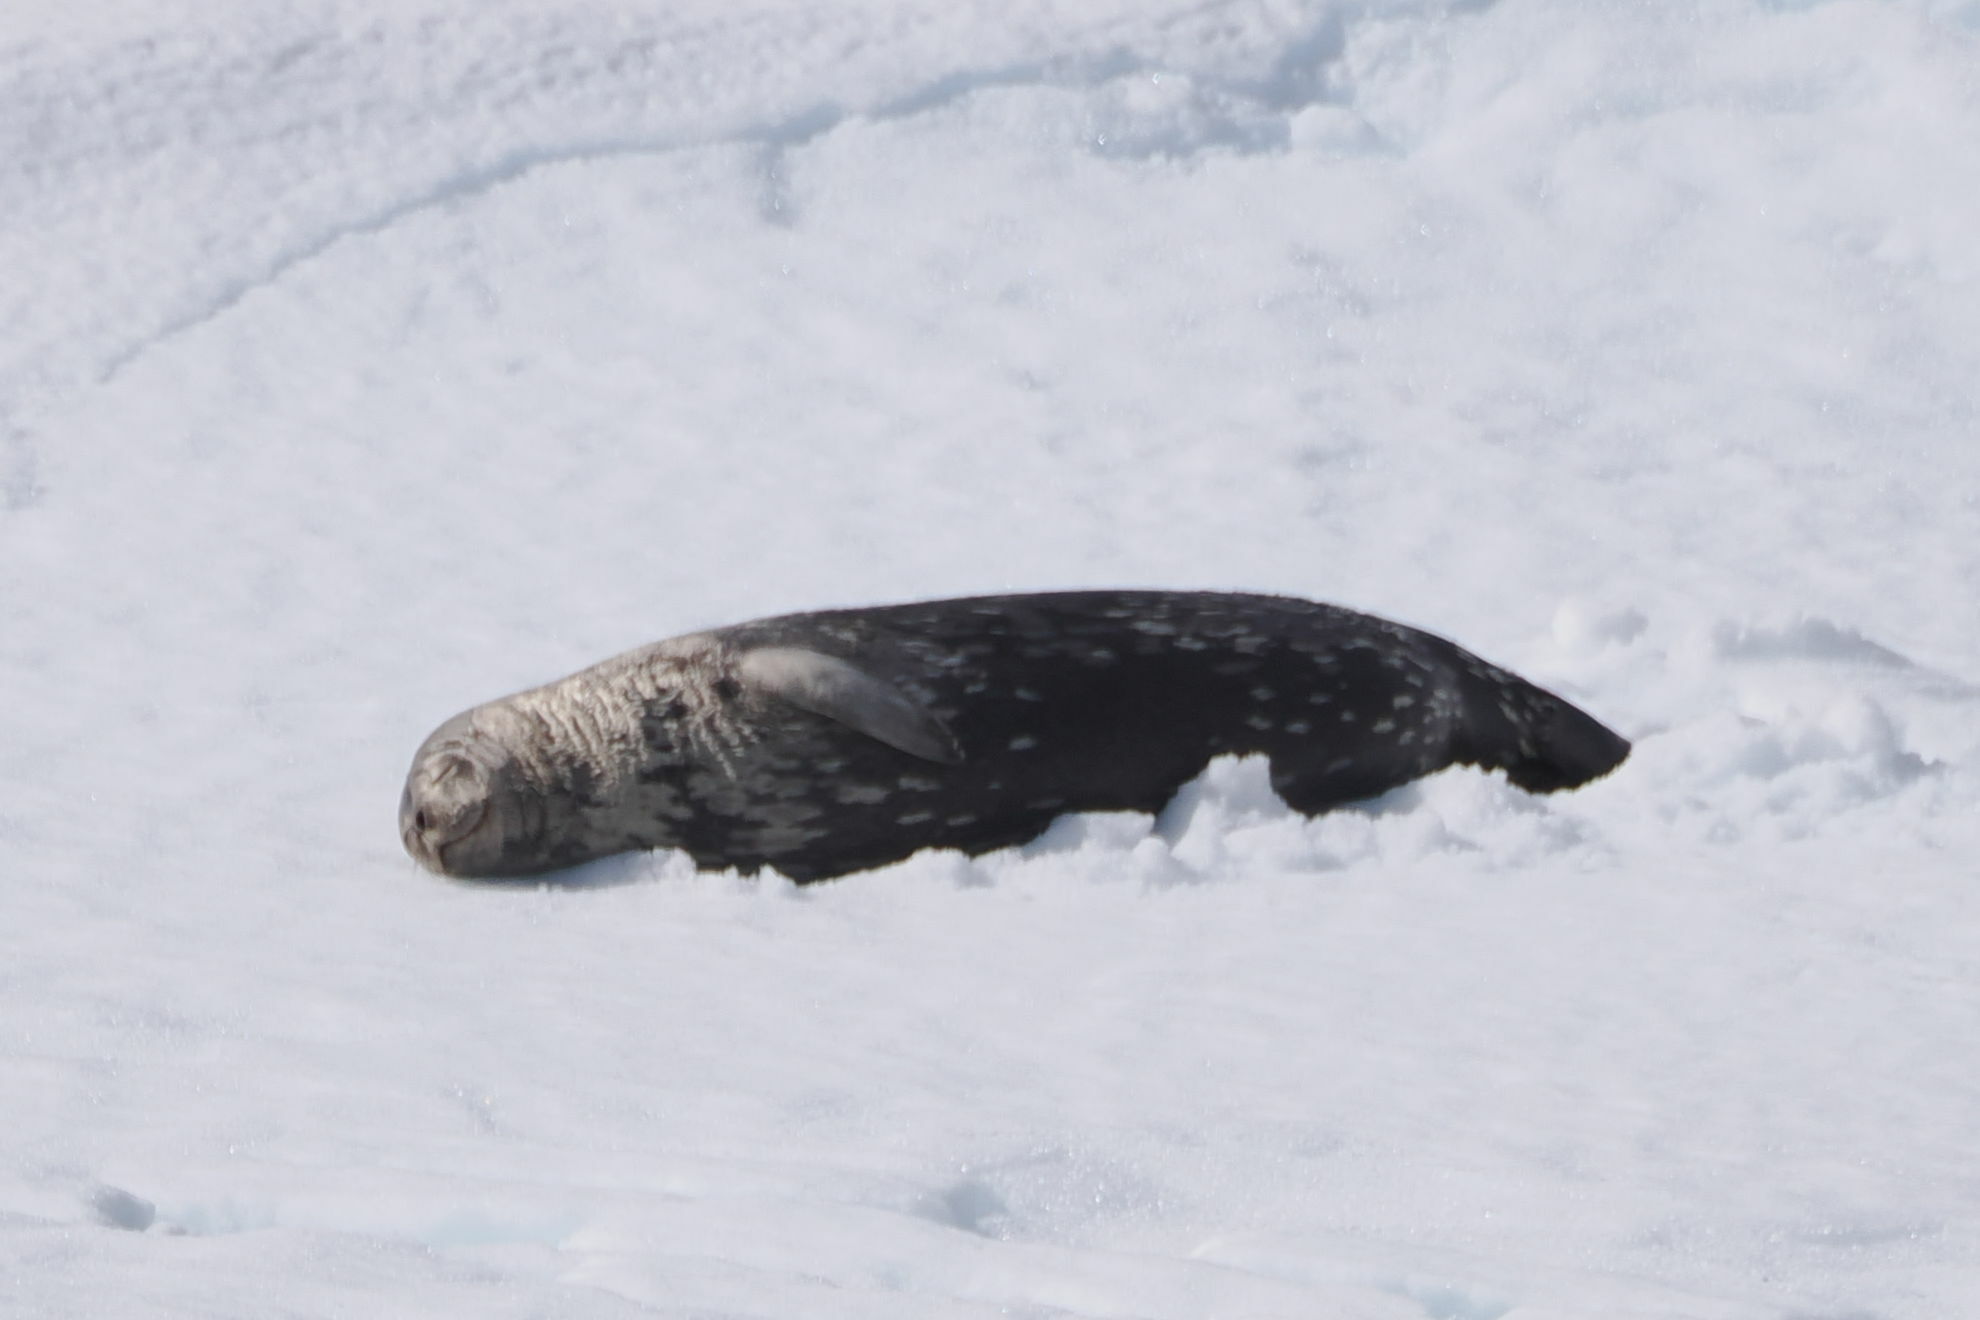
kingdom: Animalia
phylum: Chordata
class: Mammalia
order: Carnivora
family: Phocidae
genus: Leptonychotes
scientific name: Leptonychotes weddellii
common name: Weddell seal
